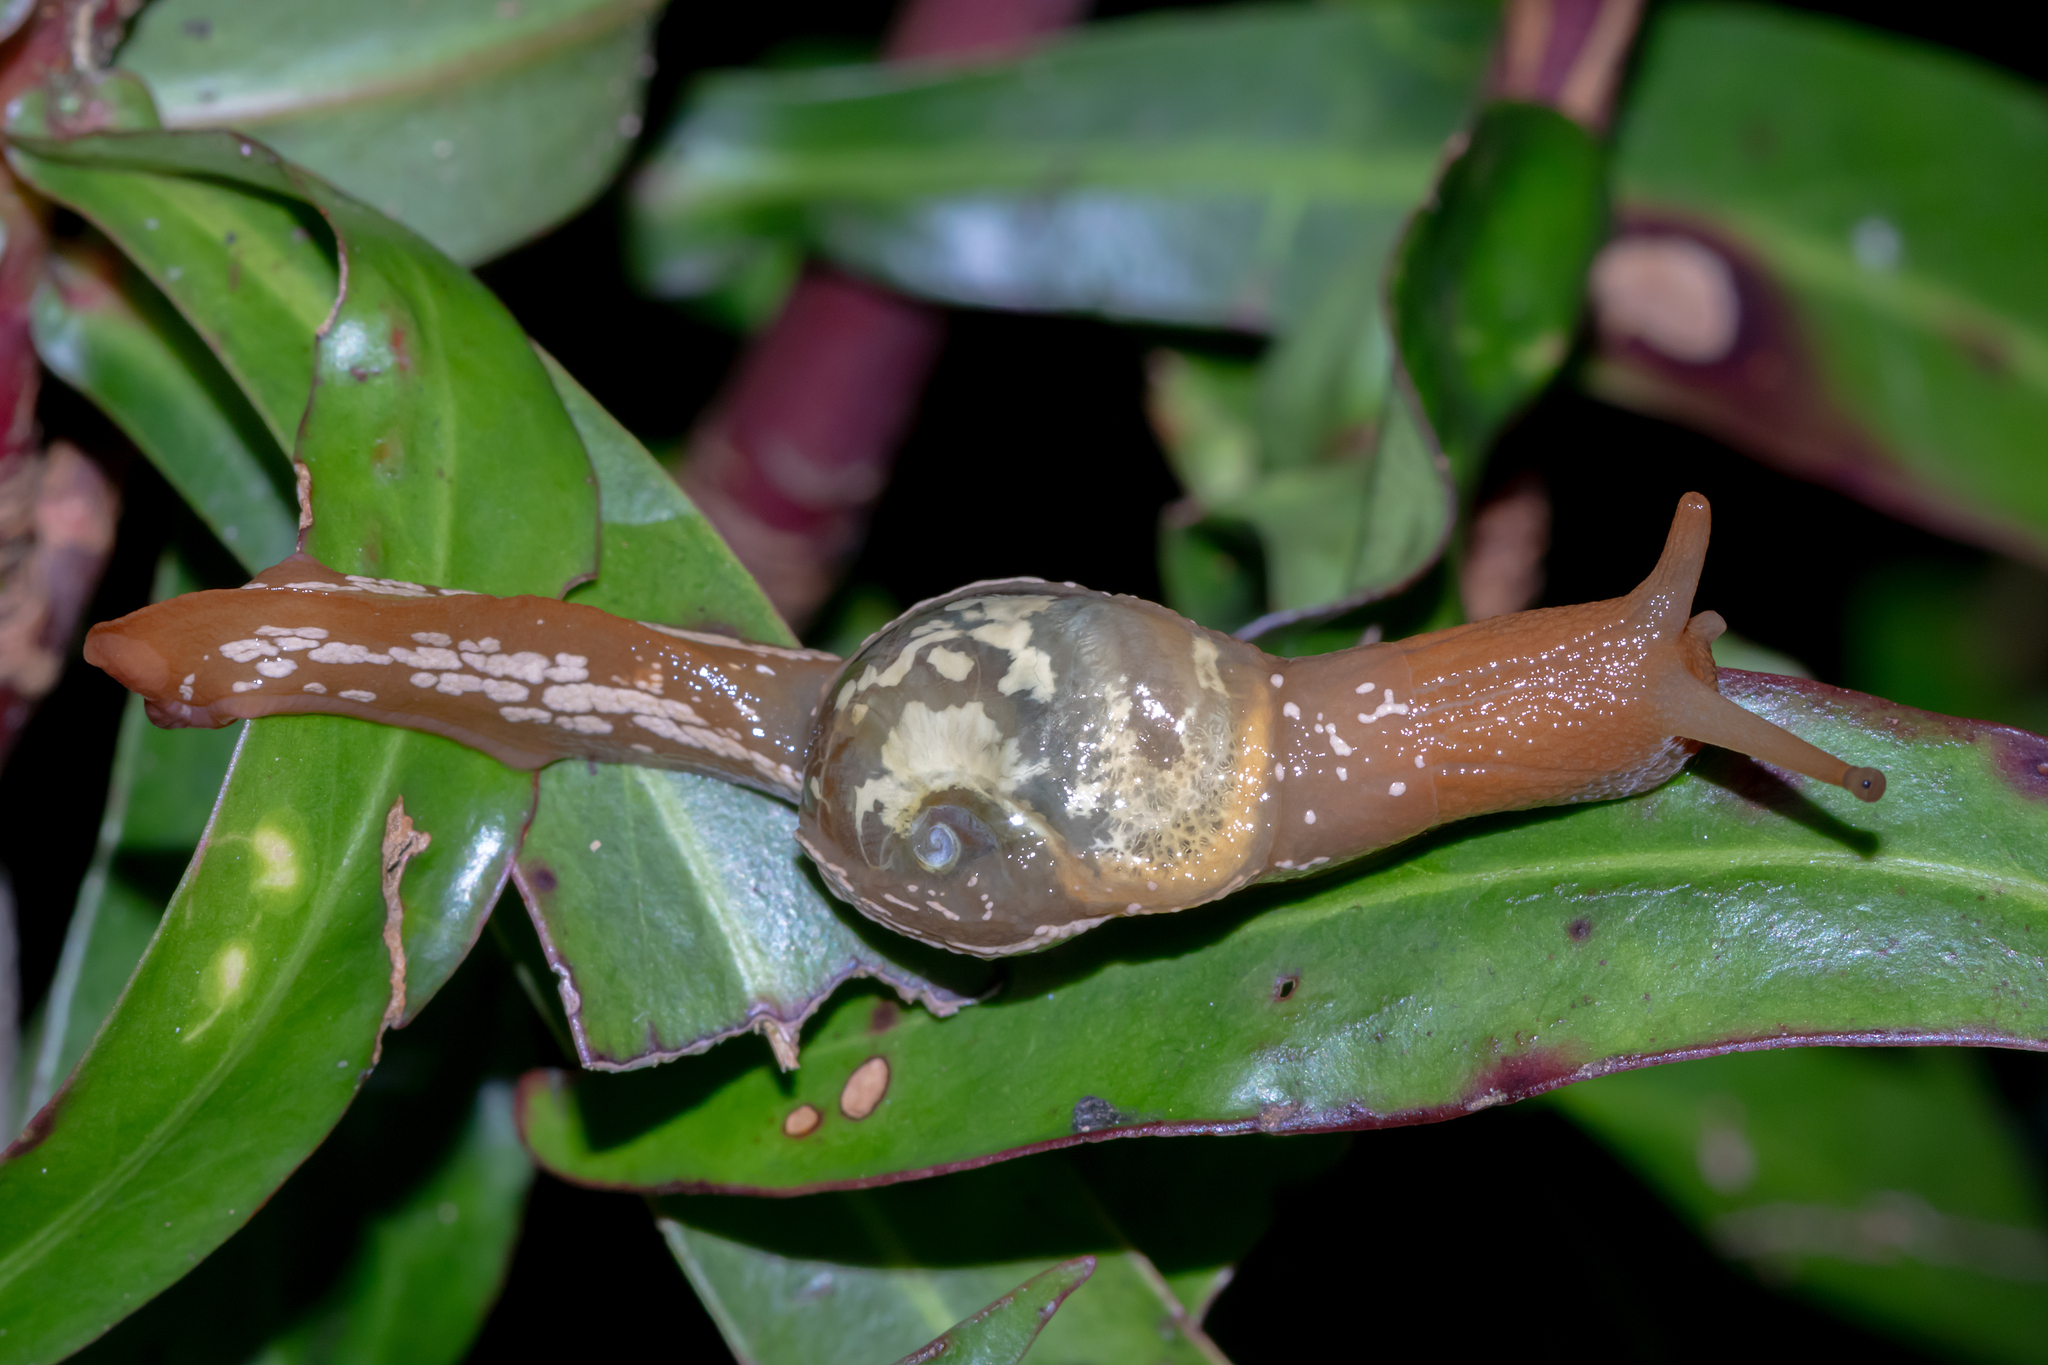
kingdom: Animalia
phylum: Mollusca
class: Gastropoda
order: Stylommatophora
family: Helicarionidae
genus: Cucullarion
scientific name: Cucullarion albimaculosus
